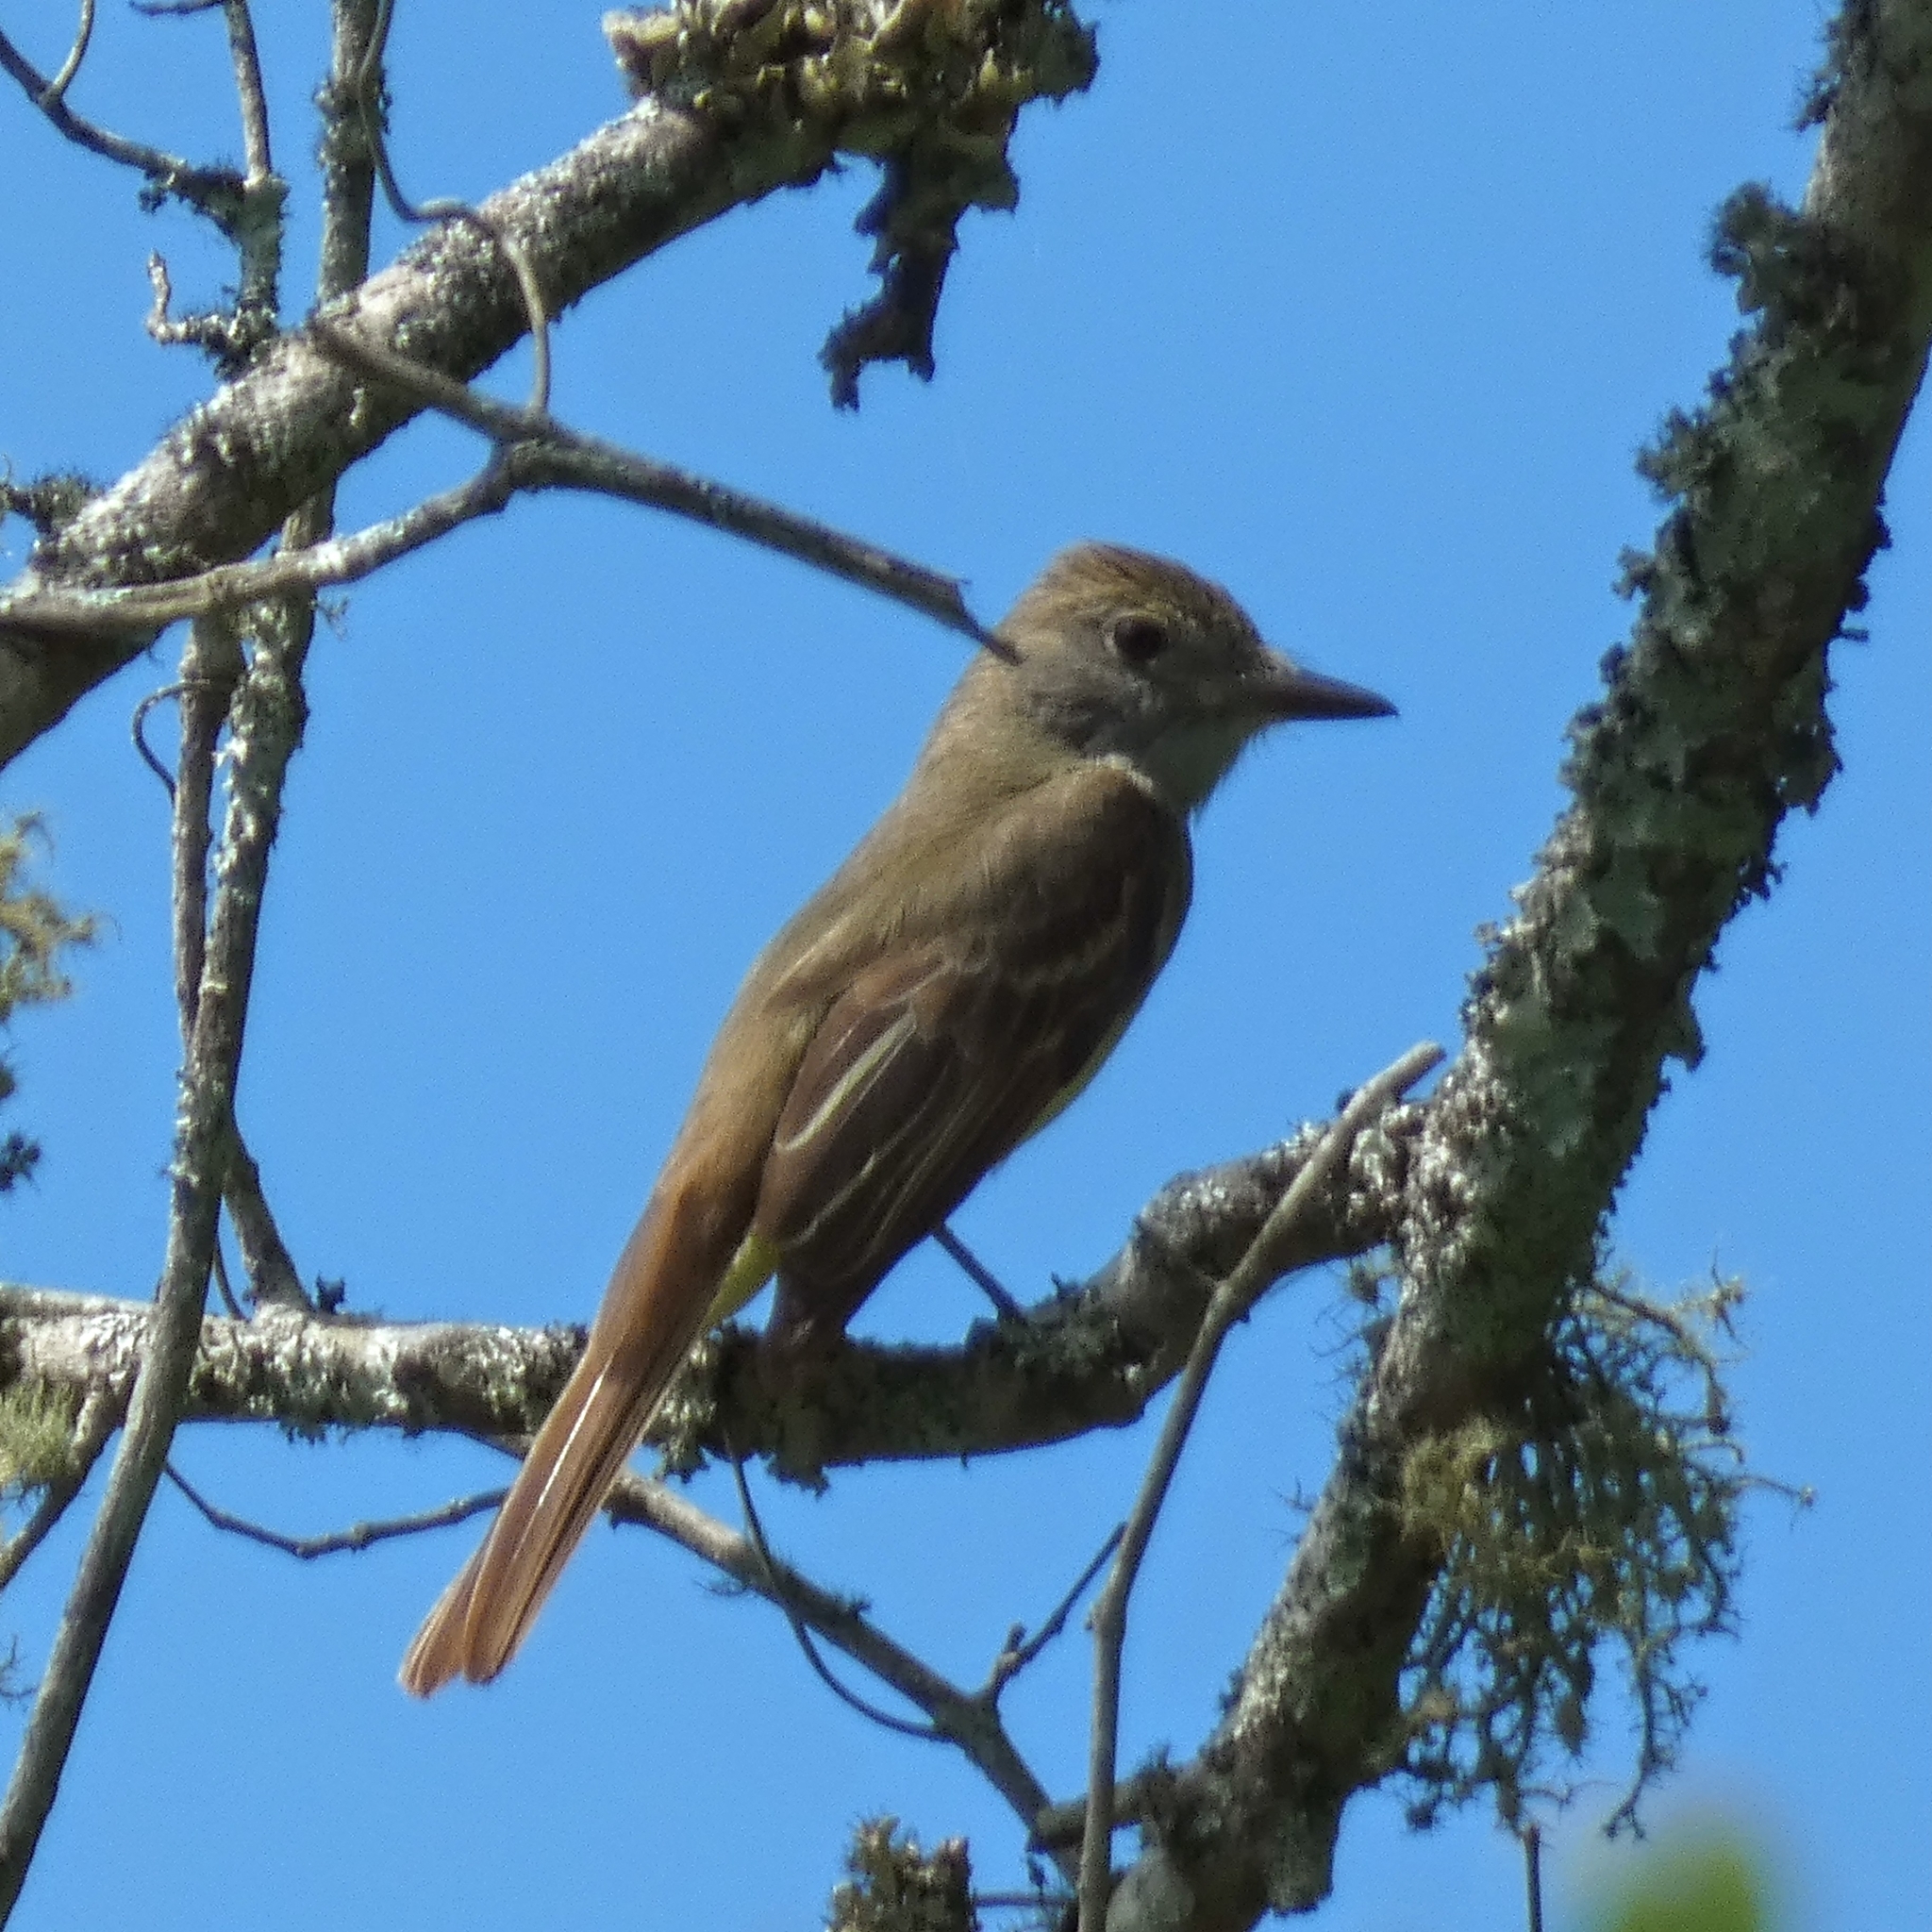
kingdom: Animalia
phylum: Chordata
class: Aves
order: Passeriformes
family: Tyrannidae
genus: Myiarchus
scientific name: Myiarchus crinitus
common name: Great crested flycatcher
